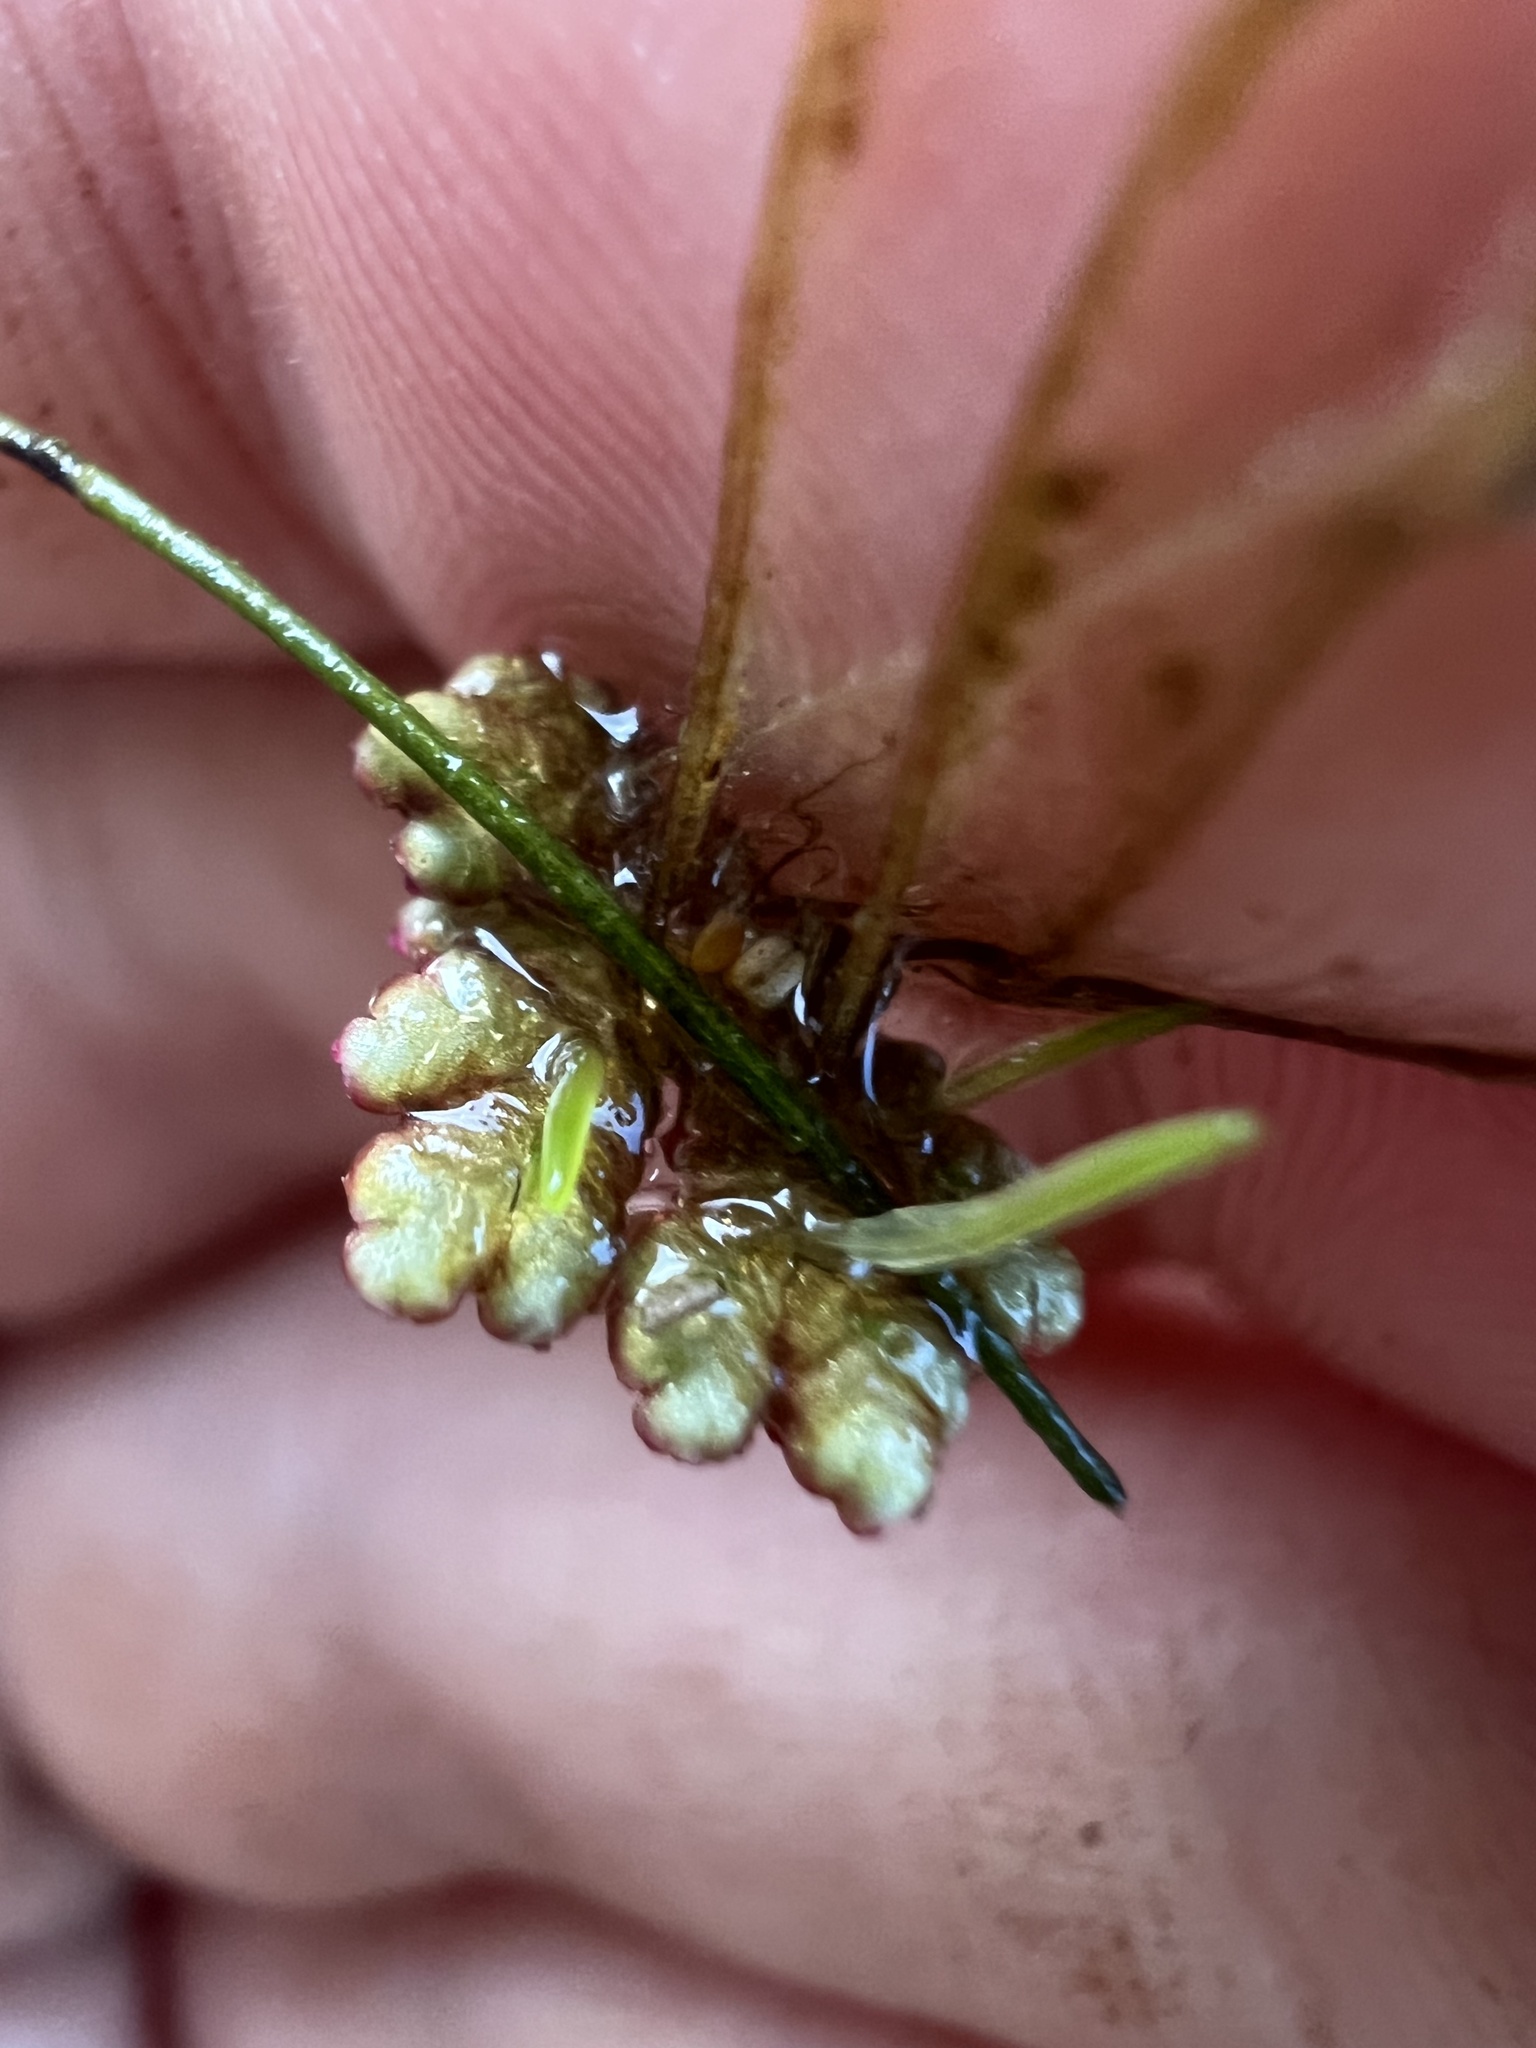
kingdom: Plantae
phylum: Tracheophyta
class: Polypodiopsida
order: Salviniales
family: Salviniaceae
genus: Azolla
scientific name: Azolla caroliniana
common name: Carolina mosquitofern
